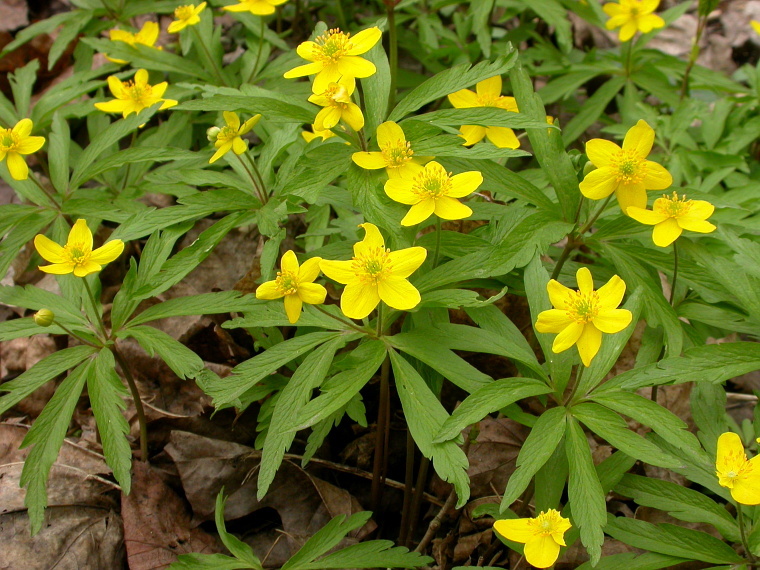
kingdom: Plantae
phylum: Tracheophyta
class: Magnoliopsida
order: Ranunculales
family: Ranunculaceae
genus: Anemone
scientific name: Anemone ranunculoides
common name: Yellow anemone
